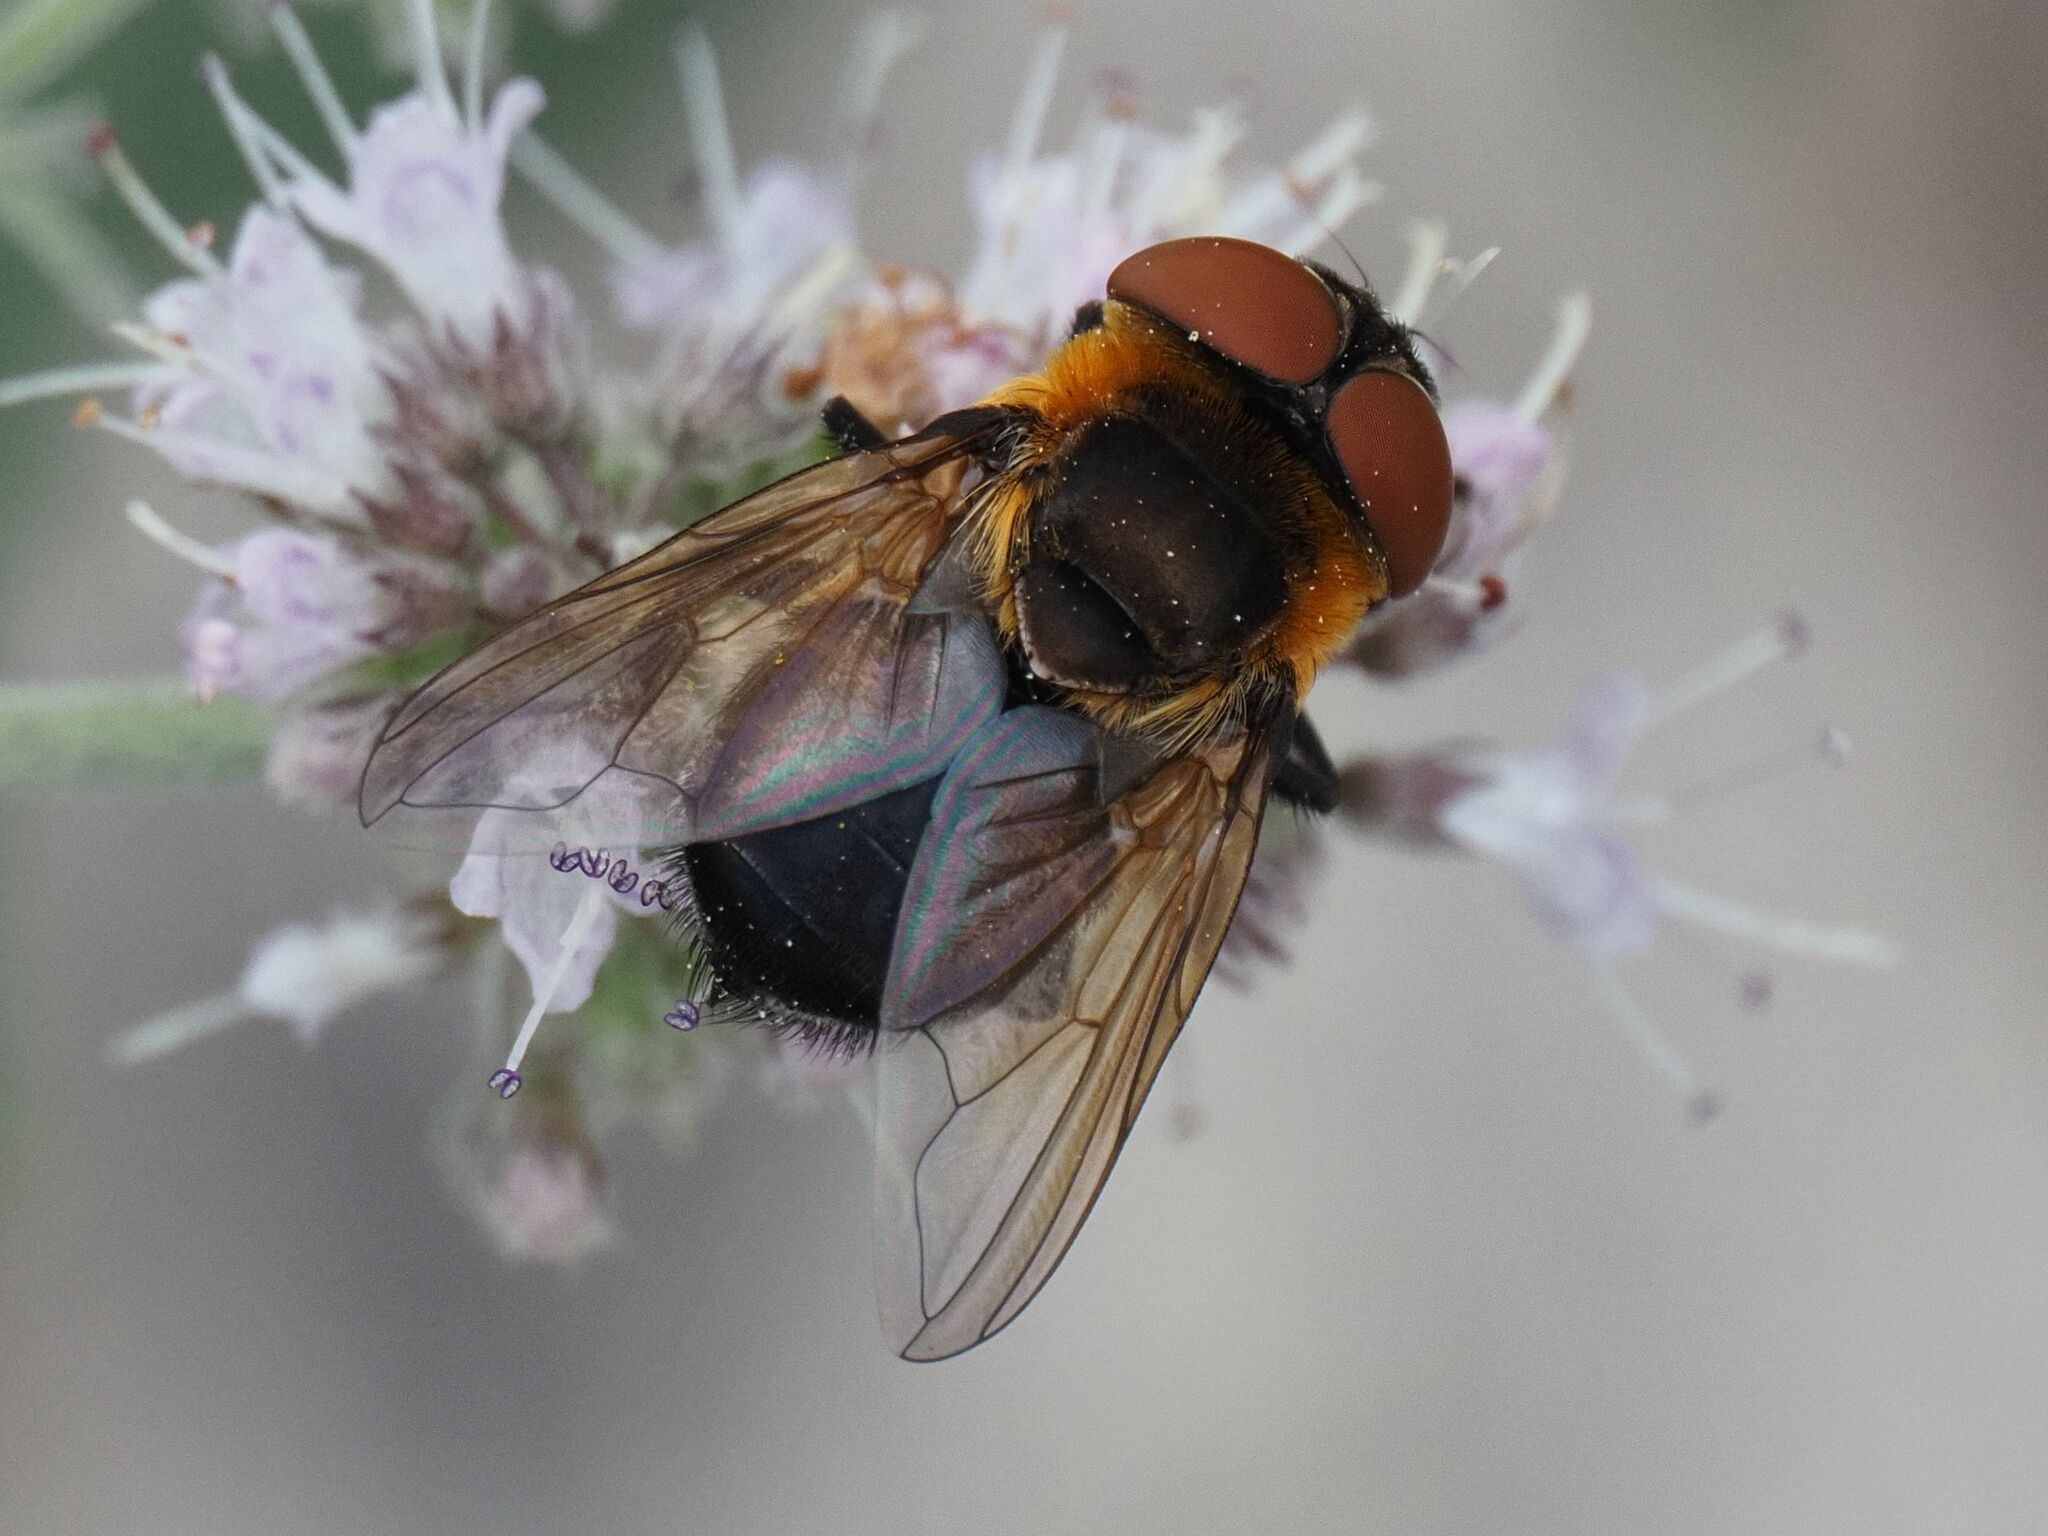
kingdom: Animalia
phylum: Arthropoda
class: Insecta
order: Diptera
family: Tachinidae
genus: Phasia
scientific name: Phasia hemiptera
